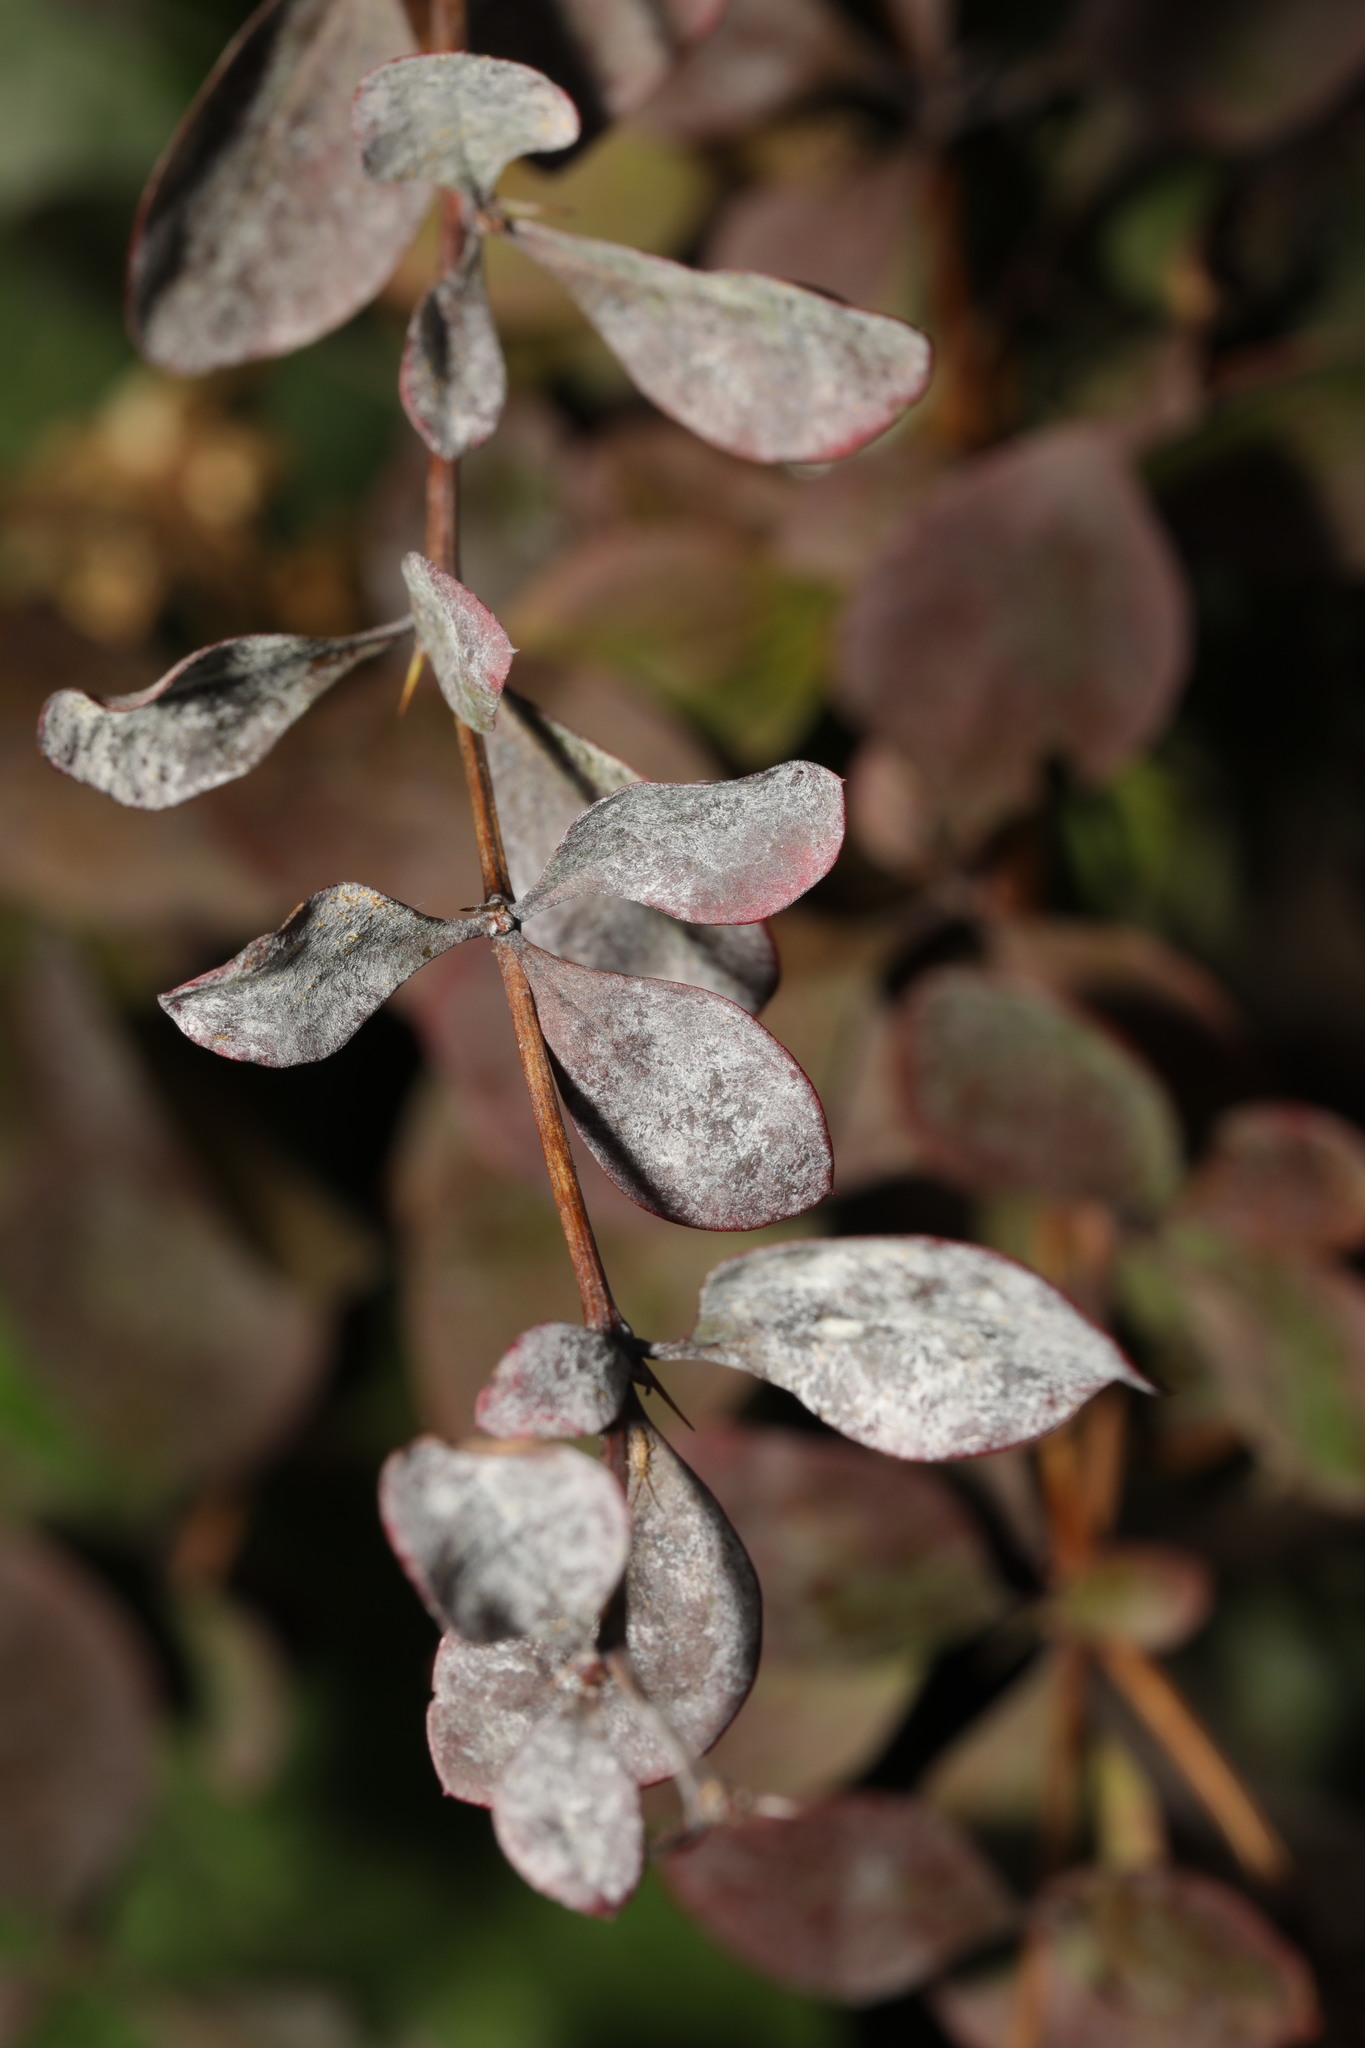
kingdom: Fungi
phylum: Ascomycota
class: Leotiomycetes
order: Helotiales
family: Erysiphaceae
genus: Erysiphe
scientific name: Erysiphe berberidis
